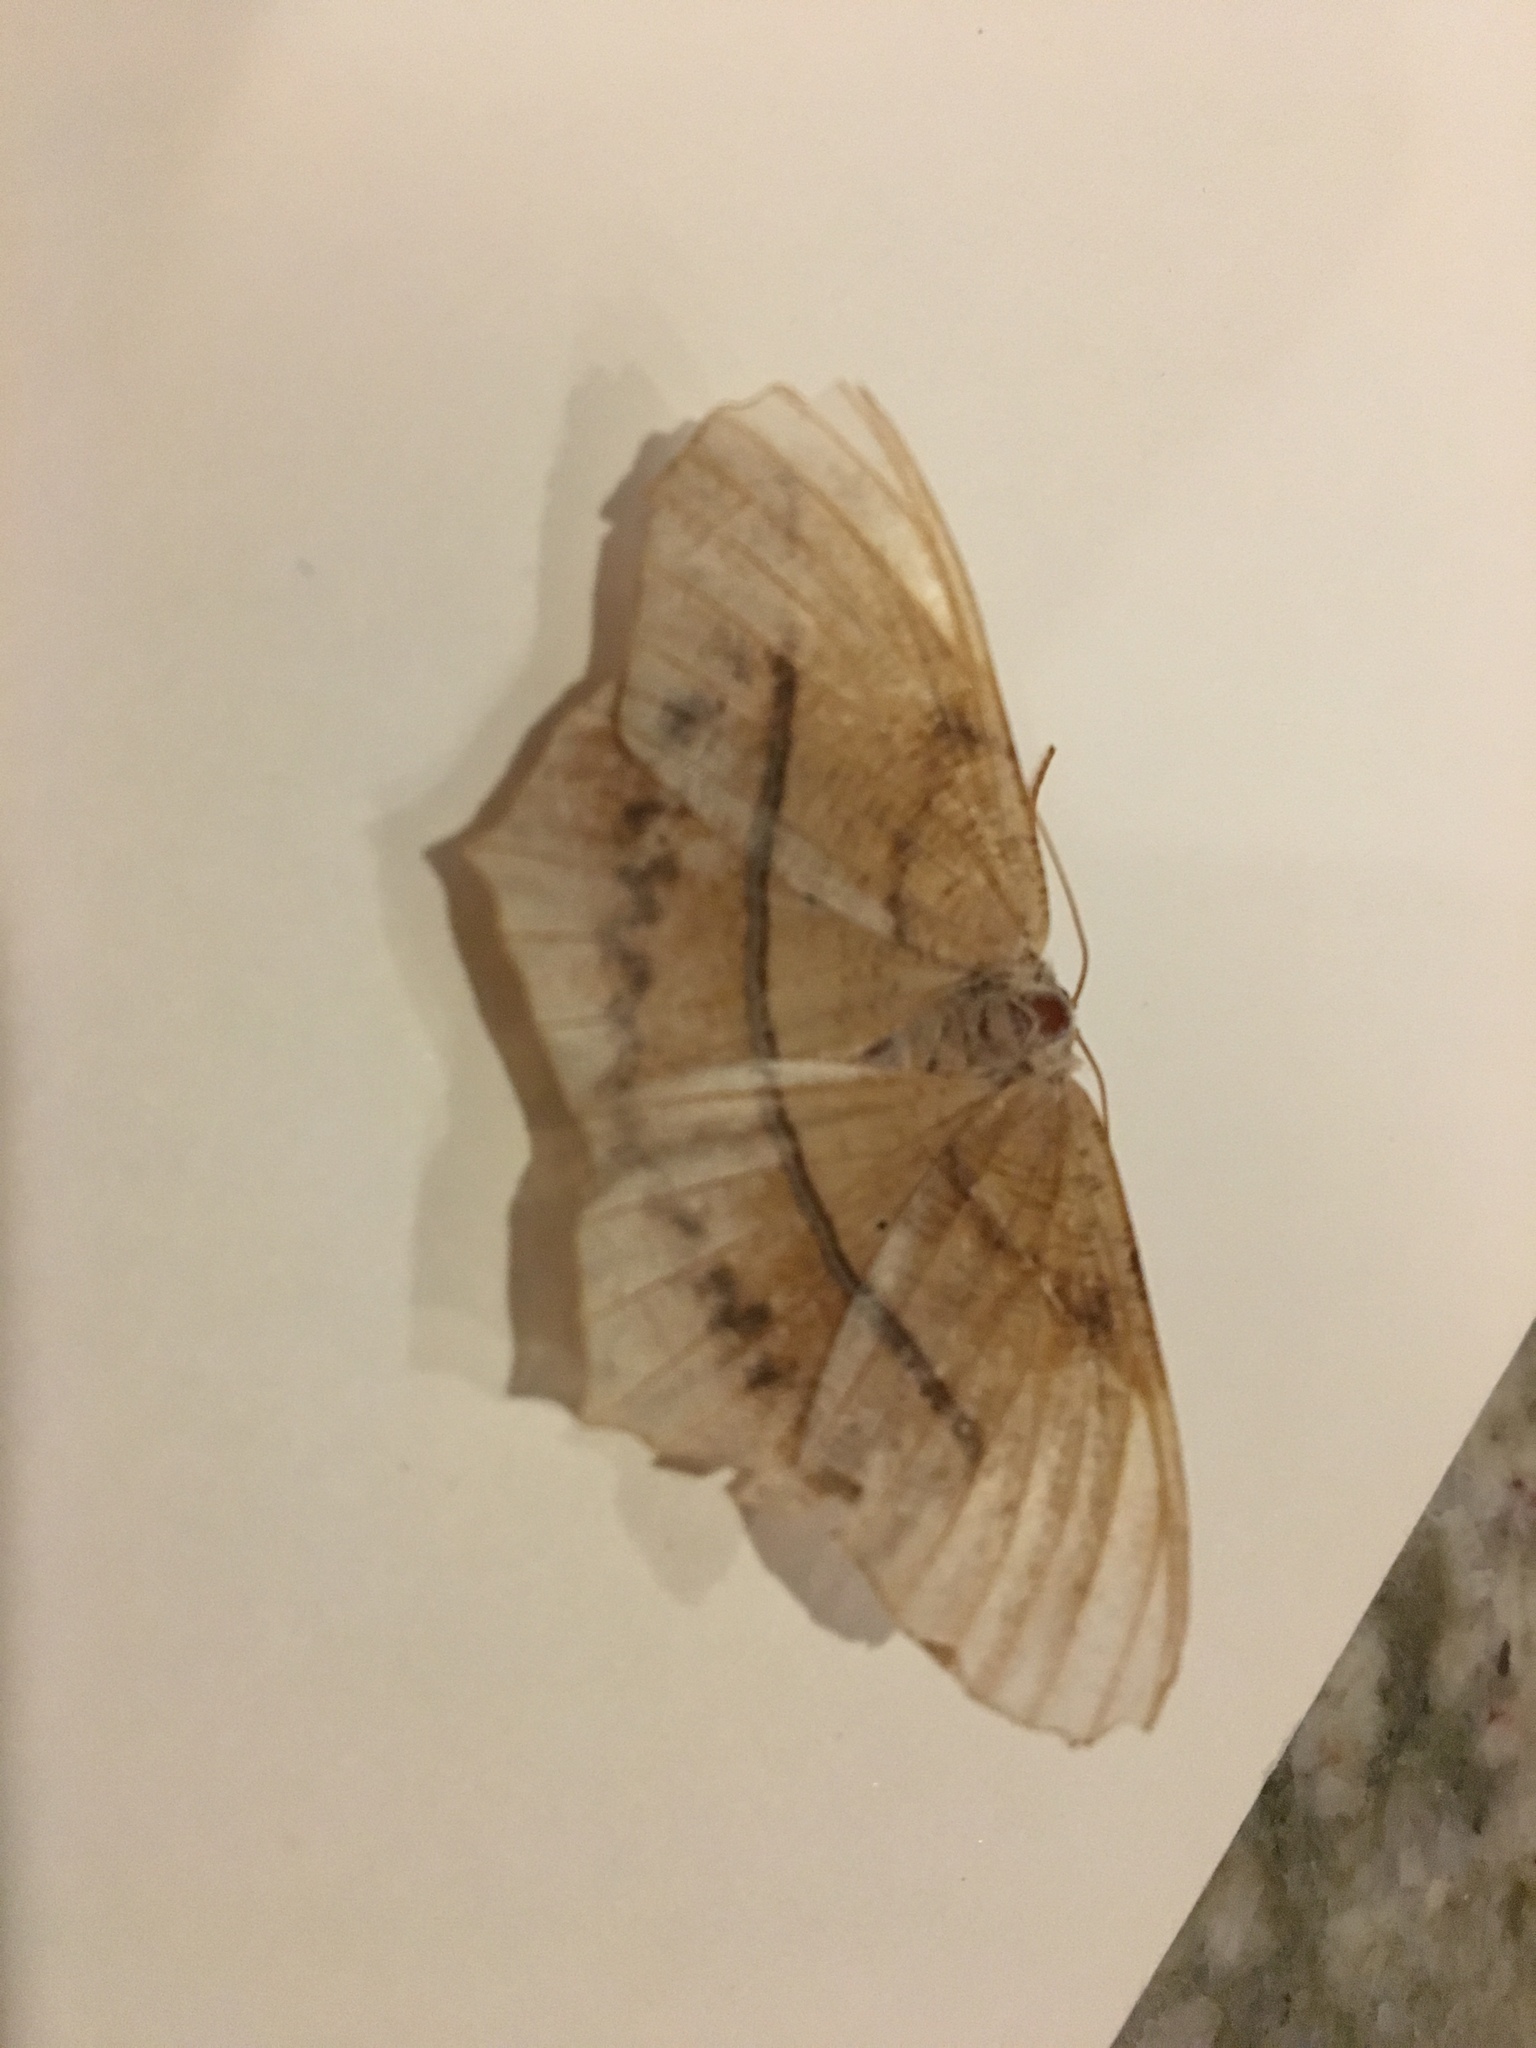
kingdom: Animalia
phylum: Arthropoda
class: Insecta
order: Lepidoptera
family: Geometridae
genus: Prochoerodes
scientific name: Prochoerodes lineola
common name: Large maple spanworm
